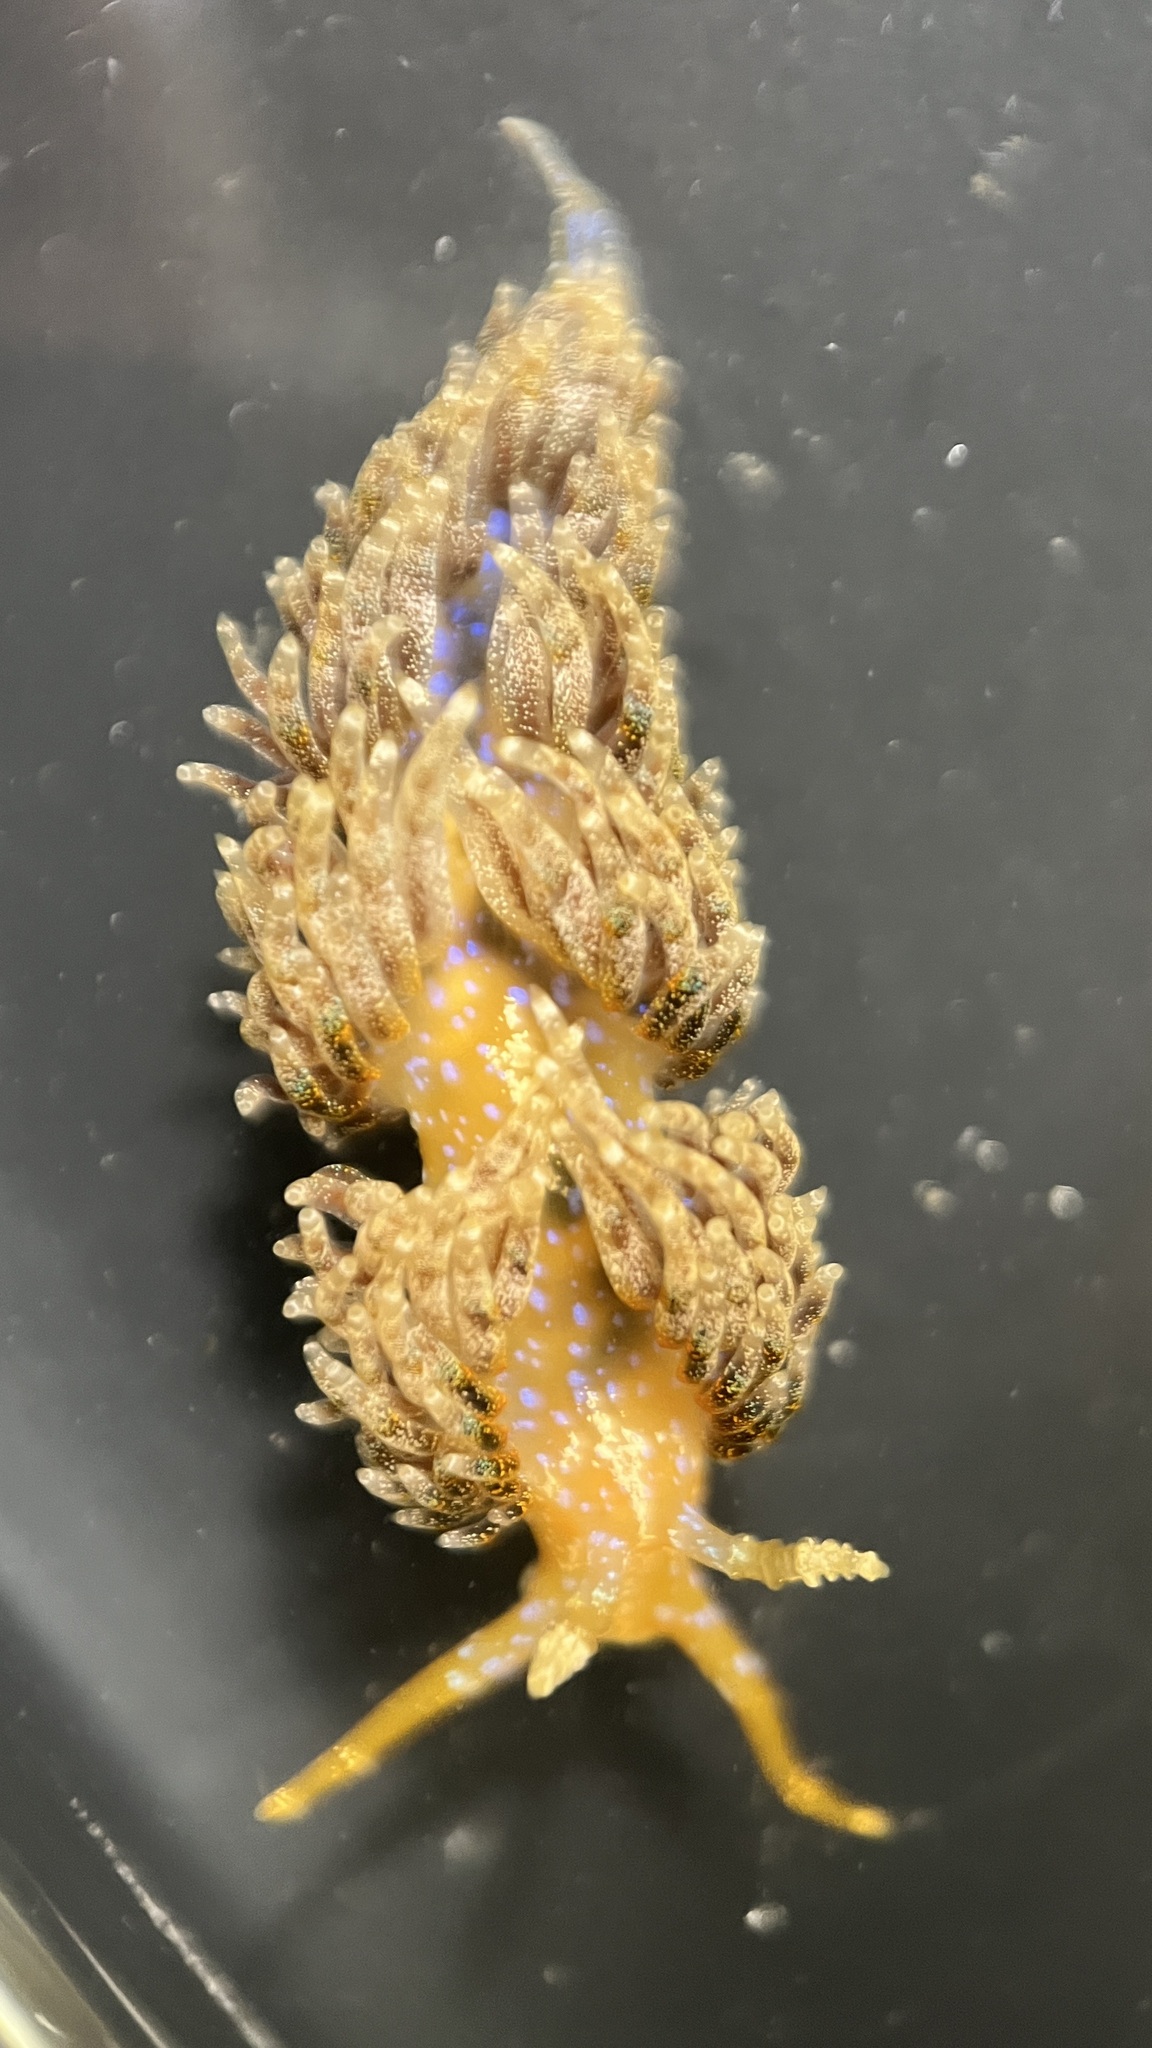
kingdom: Animalia
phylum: Mollusca
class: Gastropoda
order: Nudibranchia
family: Facelinidae
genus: Austraeolis
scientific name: Austraeolis ornata
